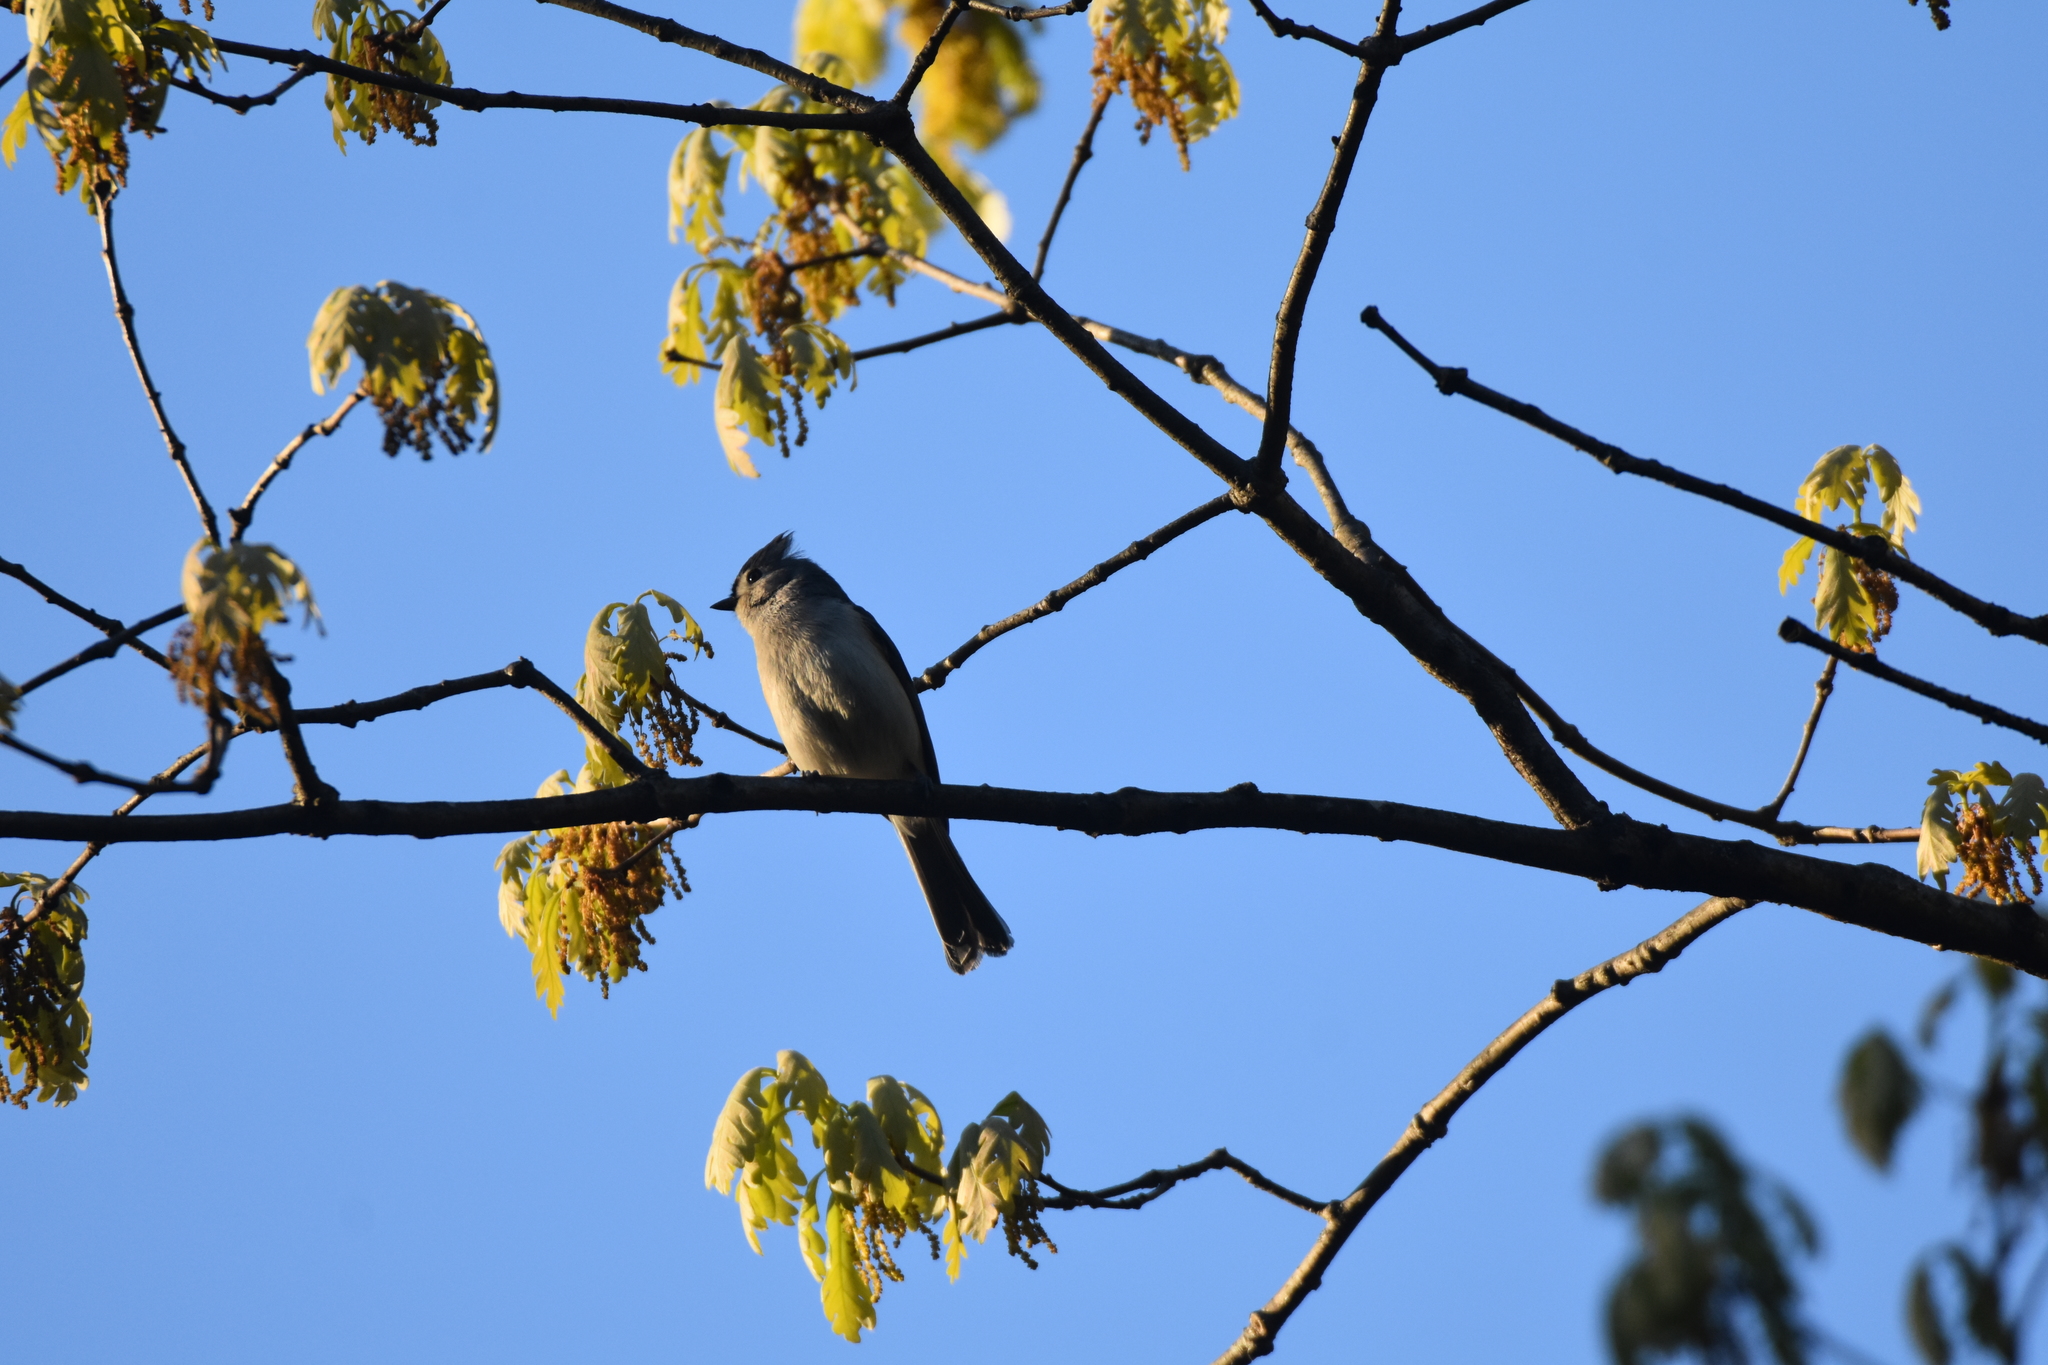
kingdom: Animalia
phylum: Chordata
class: Aves
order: Passeriformes
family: Paridae
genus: Baeolophus
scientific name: Baeolophus bicolor
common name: Tufted titmouse
